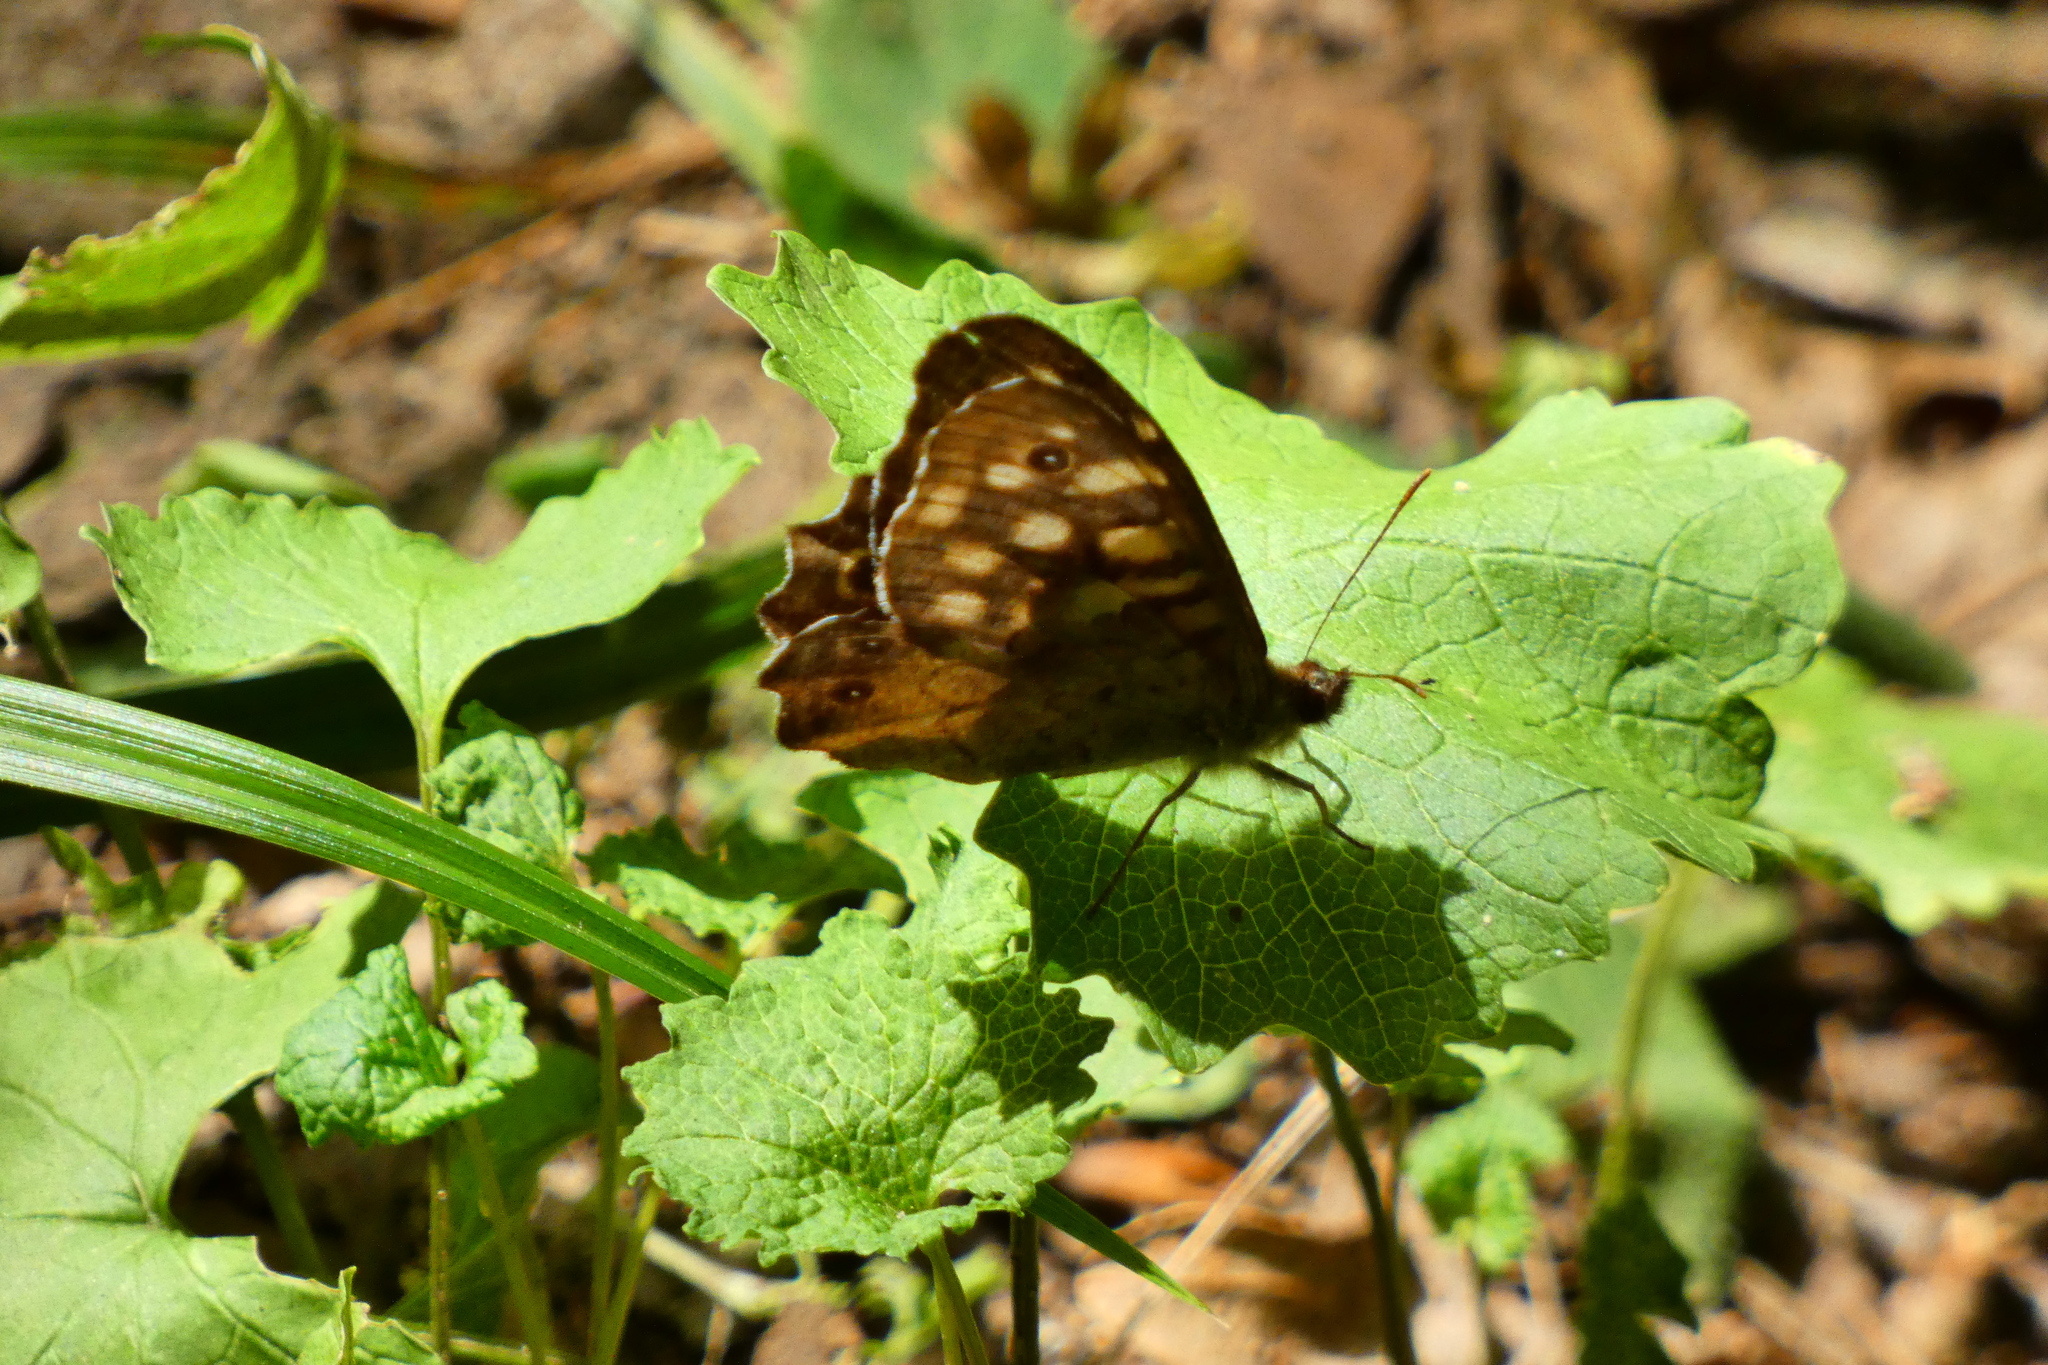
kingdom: Animalia
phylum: Arthropoda
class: Insecta
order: Lepidoptera
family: Nymphalidae
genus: Pararge
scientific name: Pararge aegeria
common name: Speckled wood
